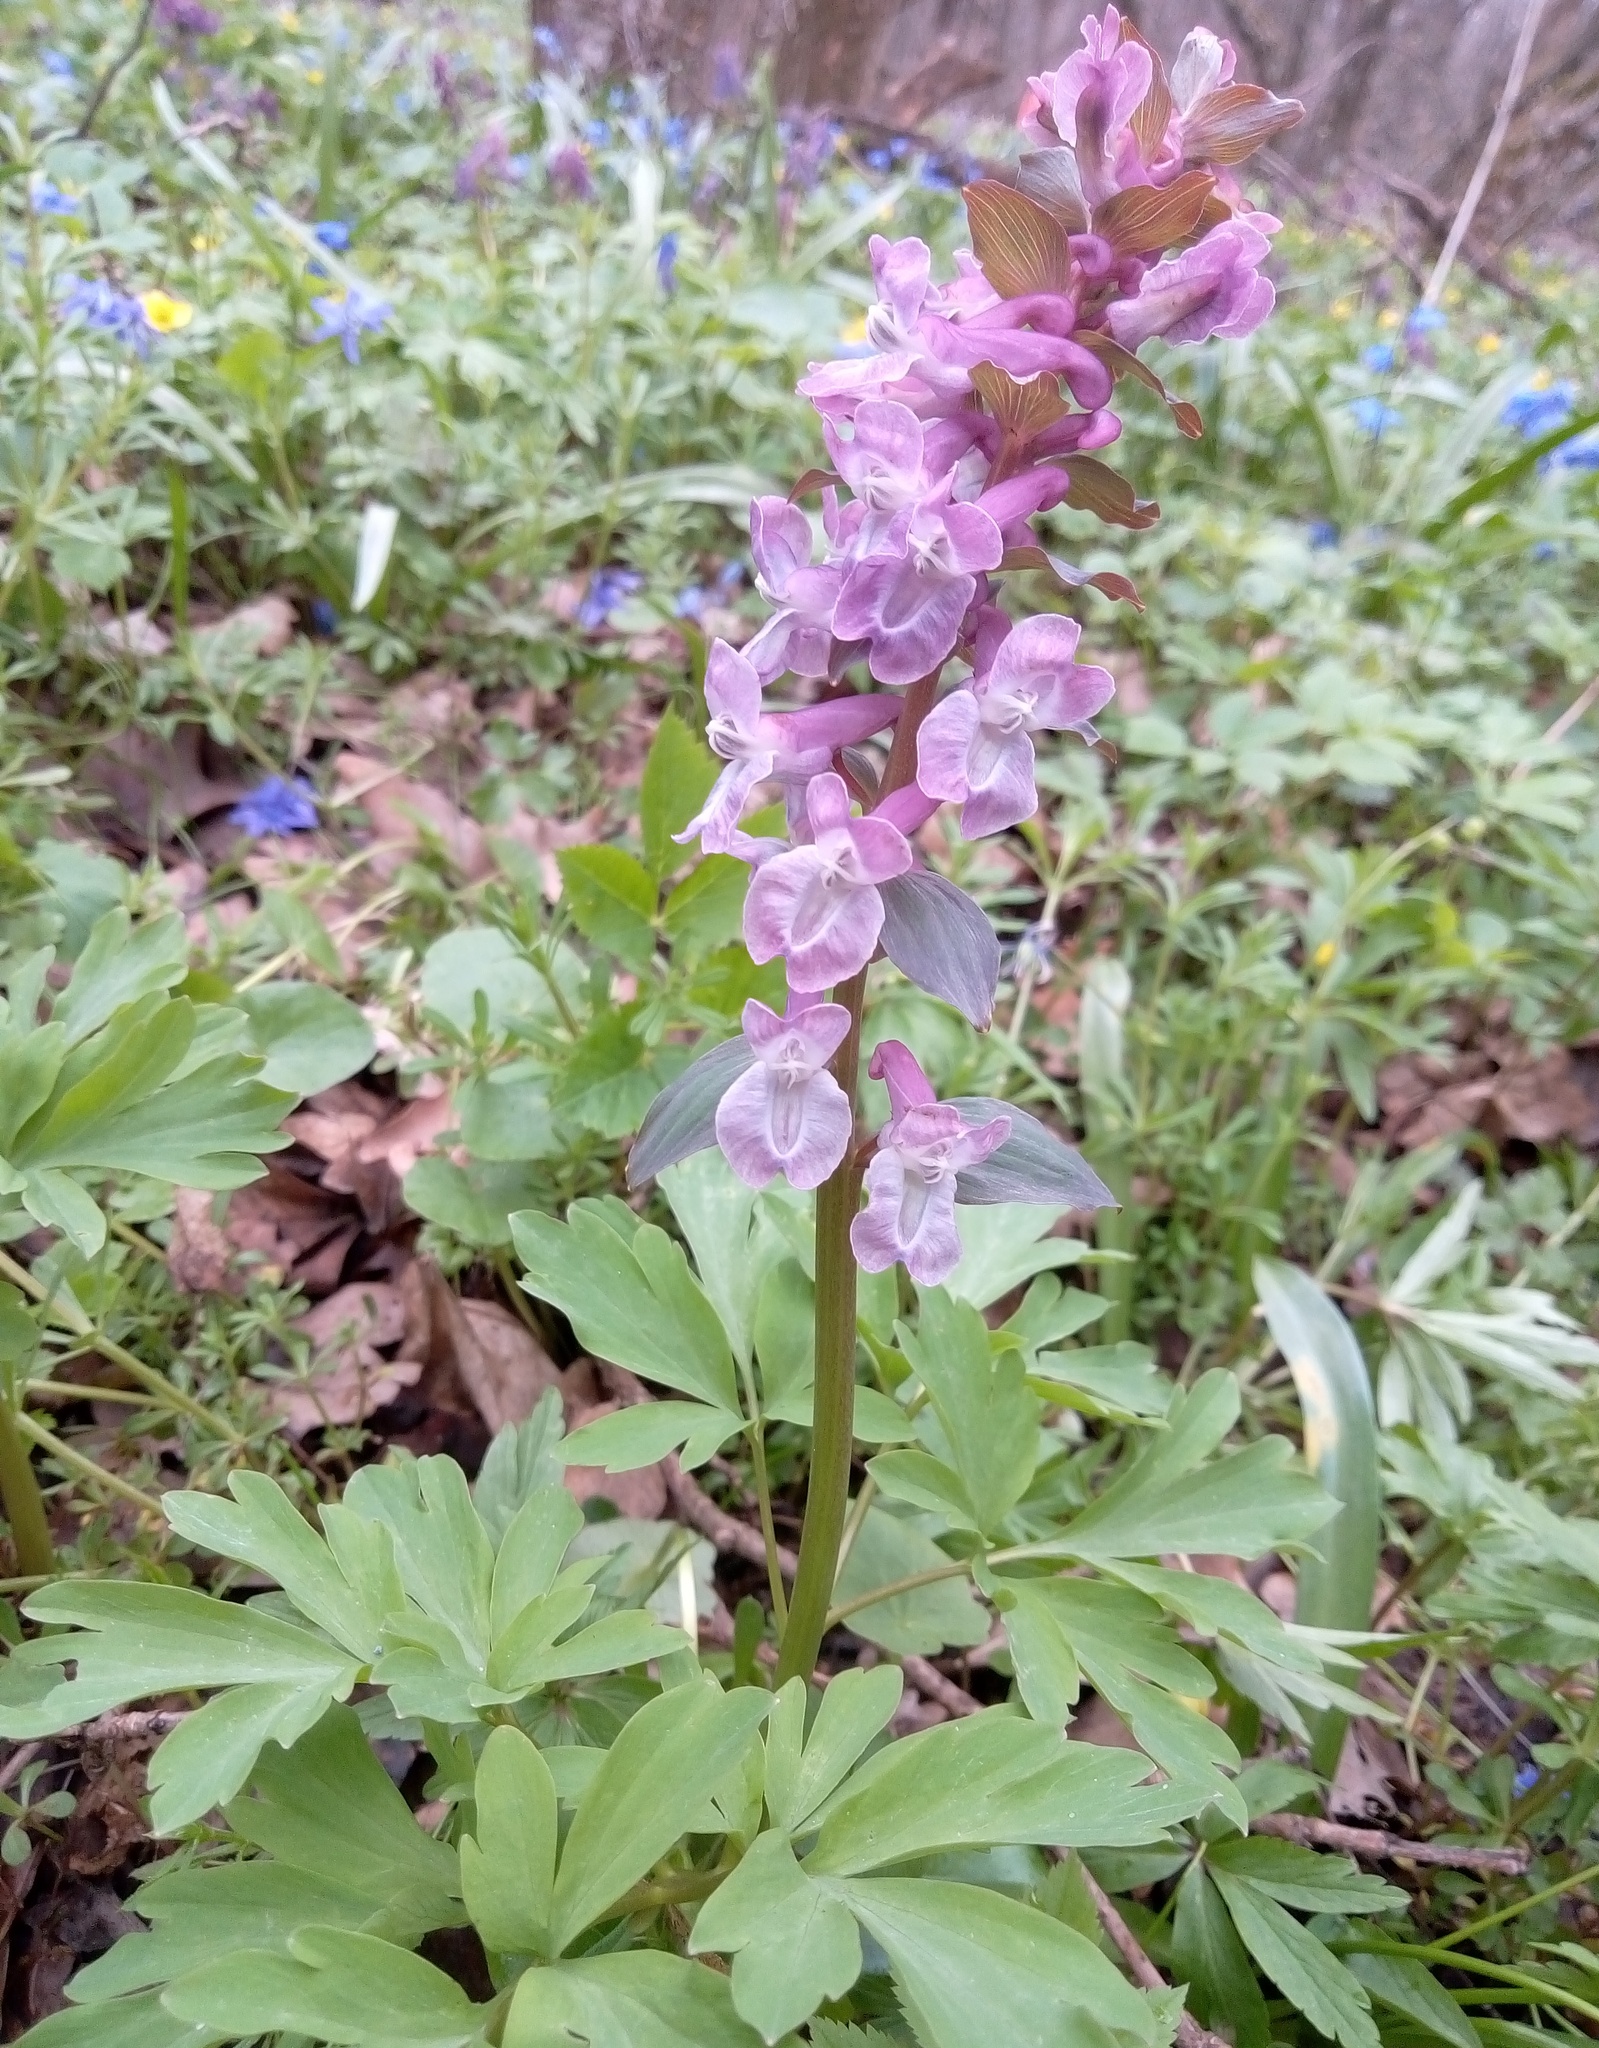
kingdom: Plantae
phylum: Tracheophyta
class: Magnoliopsida
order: Ranunculales
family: Papaveraceae
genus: Corydalis
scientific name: Corydalis cava
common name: Hollowroot
